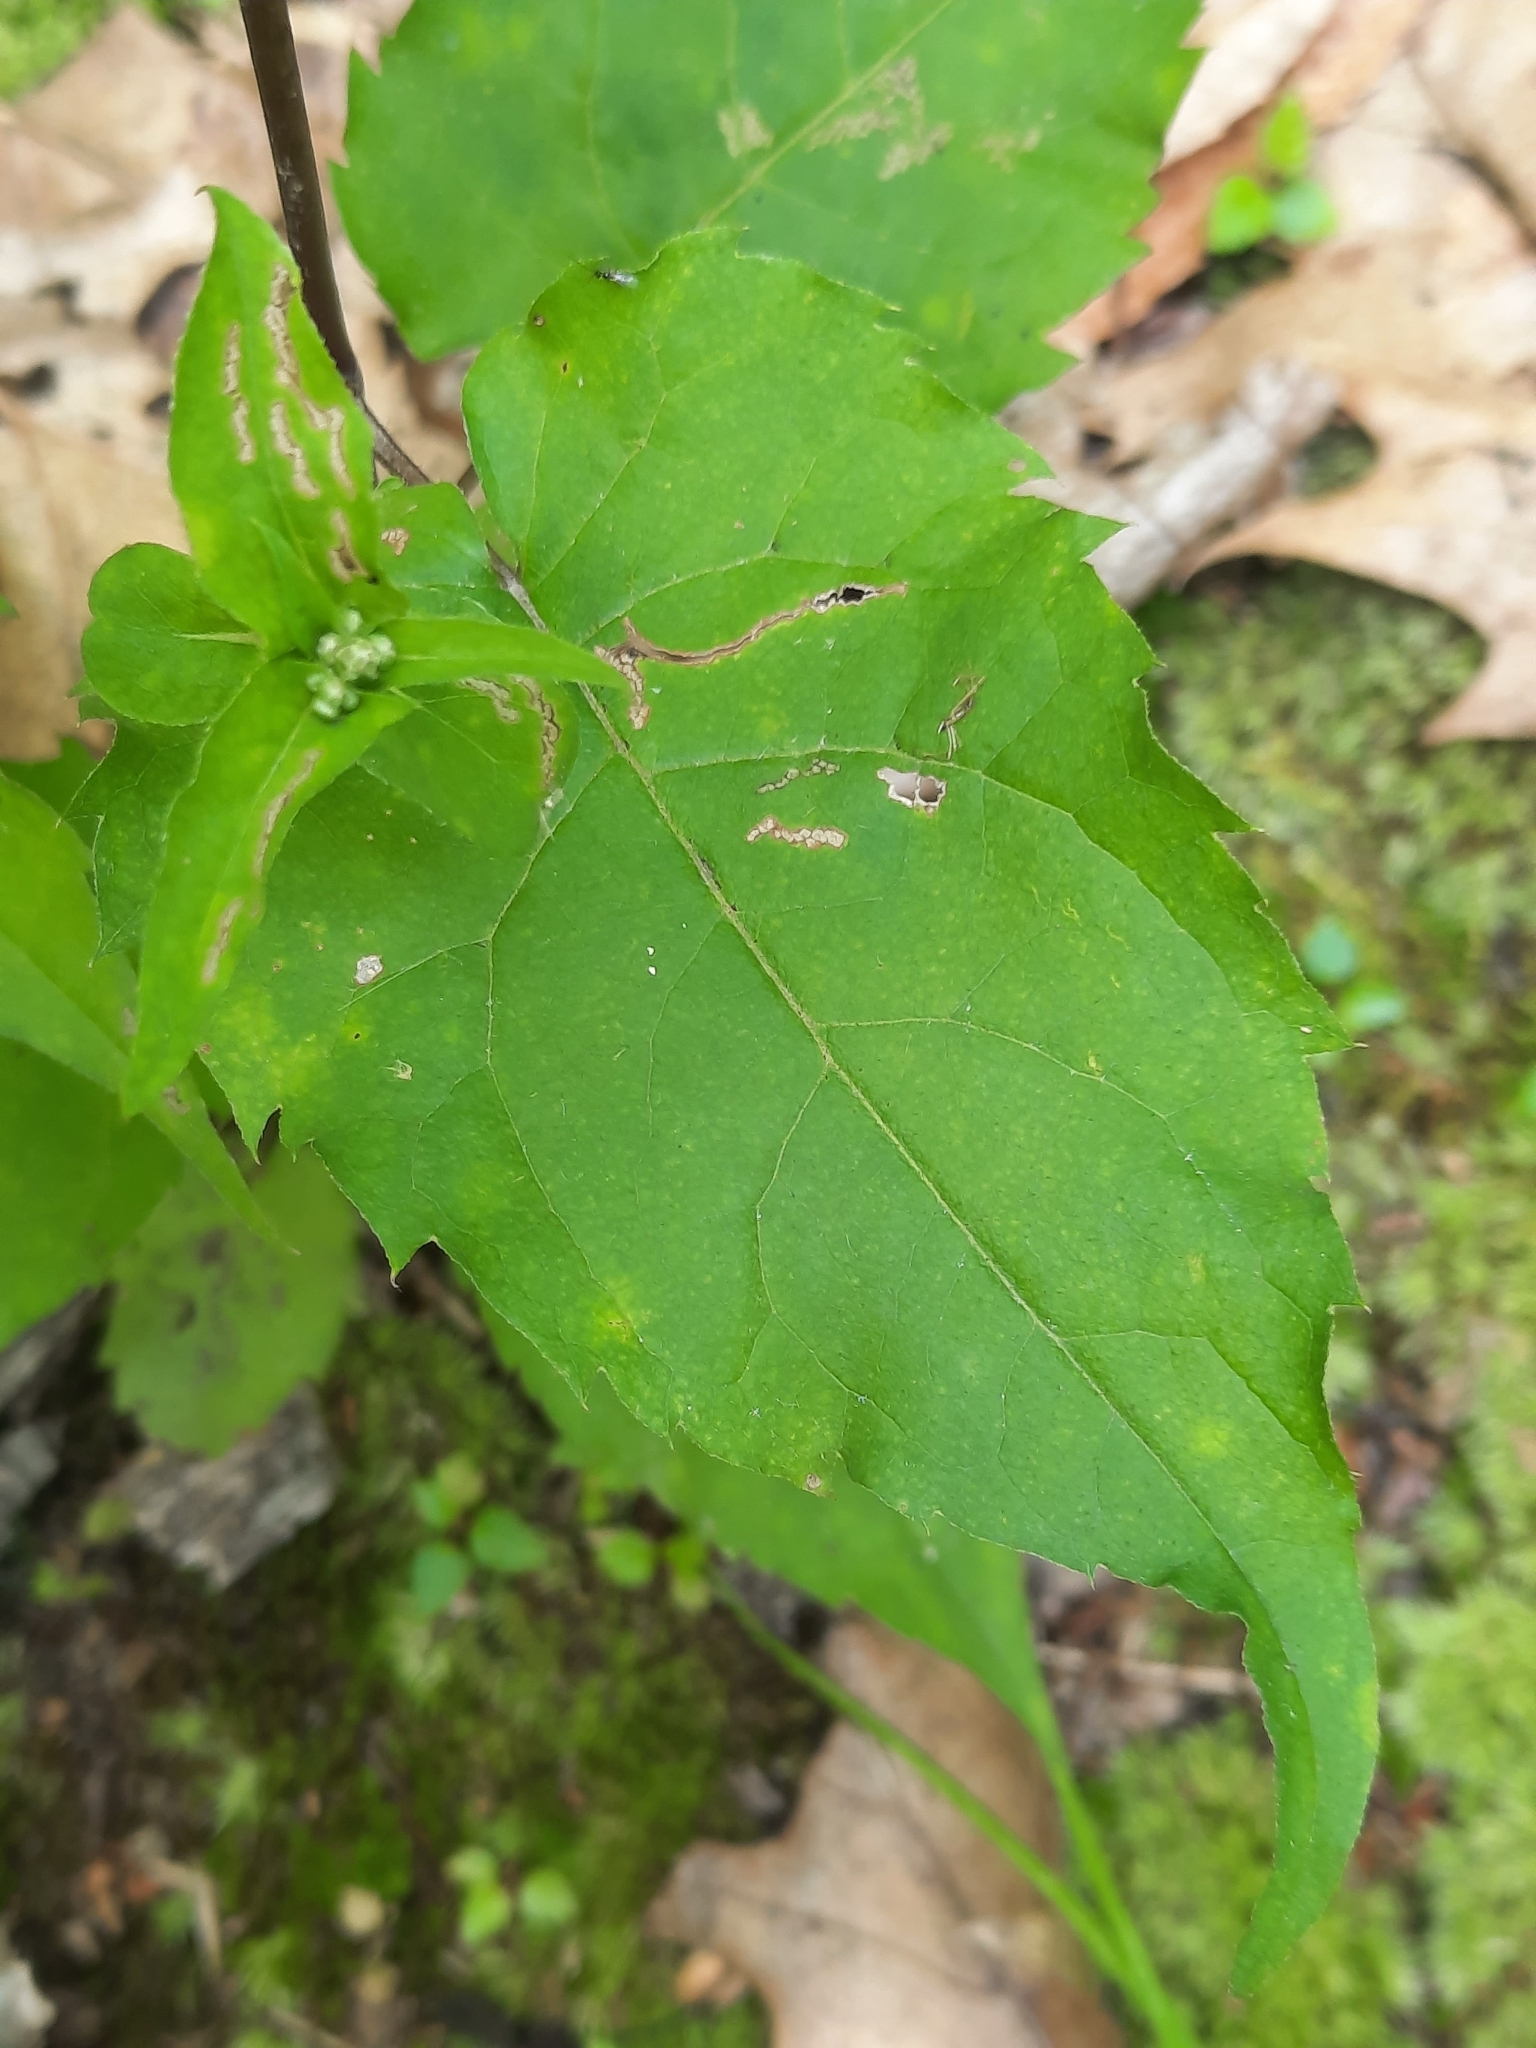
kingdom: Plantae
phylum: Tracheophyta
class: Magnoliopsida
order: Asterales
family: Asteraceae
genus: Eurybia
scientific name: Eurybia divaricata
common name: White wood aster
